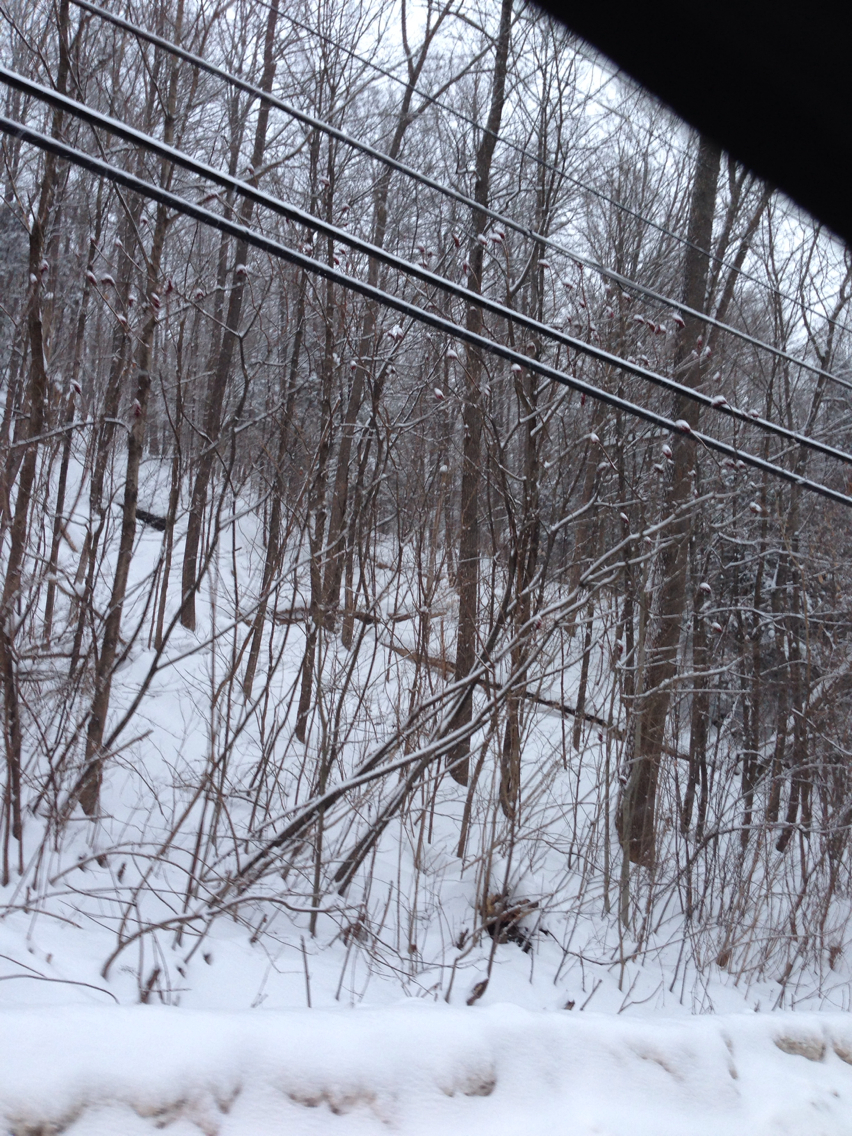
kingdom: Plantae
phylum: Tracheophyta
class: Magnoliopsida
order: Sapindales
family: Anacardiaceae
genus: Rhus
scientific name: Rhus typhina
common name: Staghorn sumac
